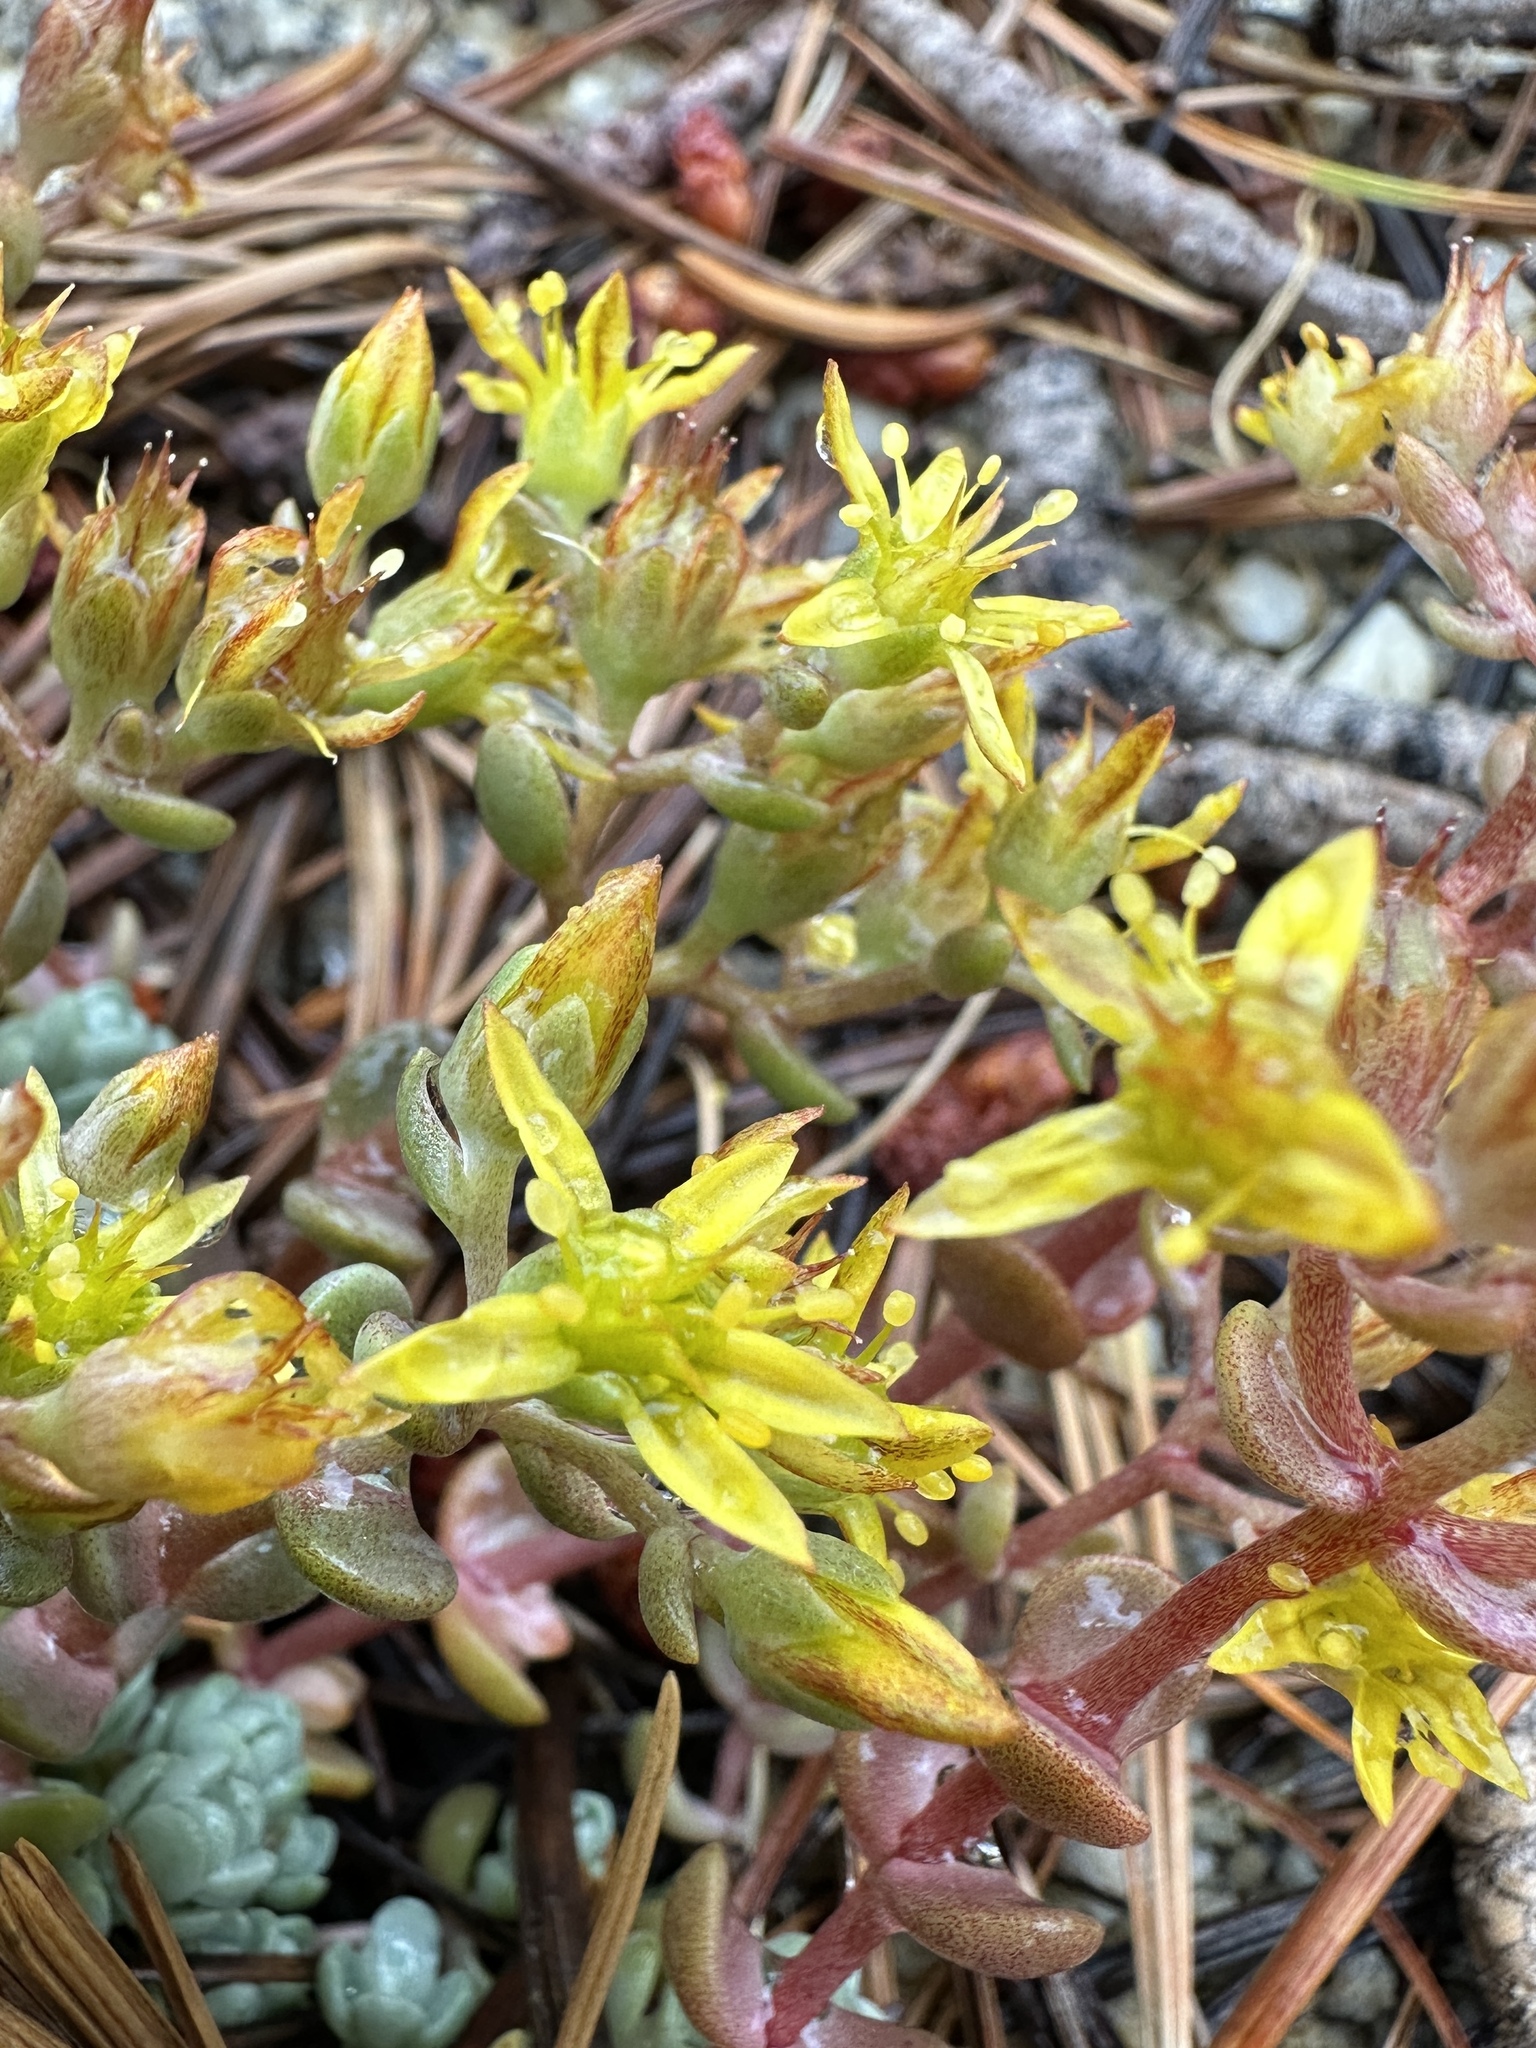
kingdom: Plantae
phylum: Tracheophyta
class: Magnoliopsida
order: Saxifragales
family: Crassulaceae
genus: Sedum
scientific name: Sedum debile
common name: Weak-stem stonecrop
